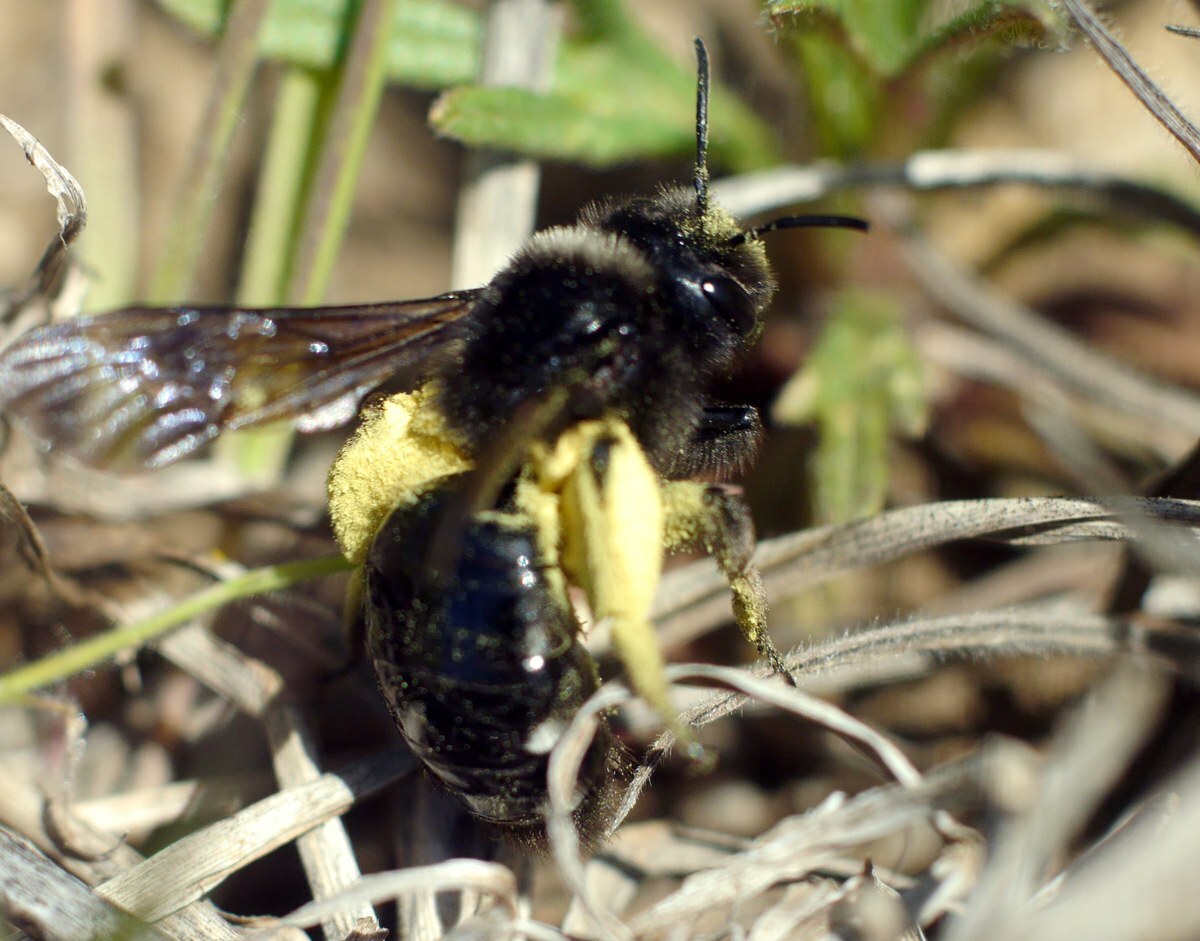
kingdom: Animalia
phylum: Arthropoda
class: Insecta
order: Hymenoptera
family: Andrenidae
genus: Andrena
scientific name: Andrena magna
